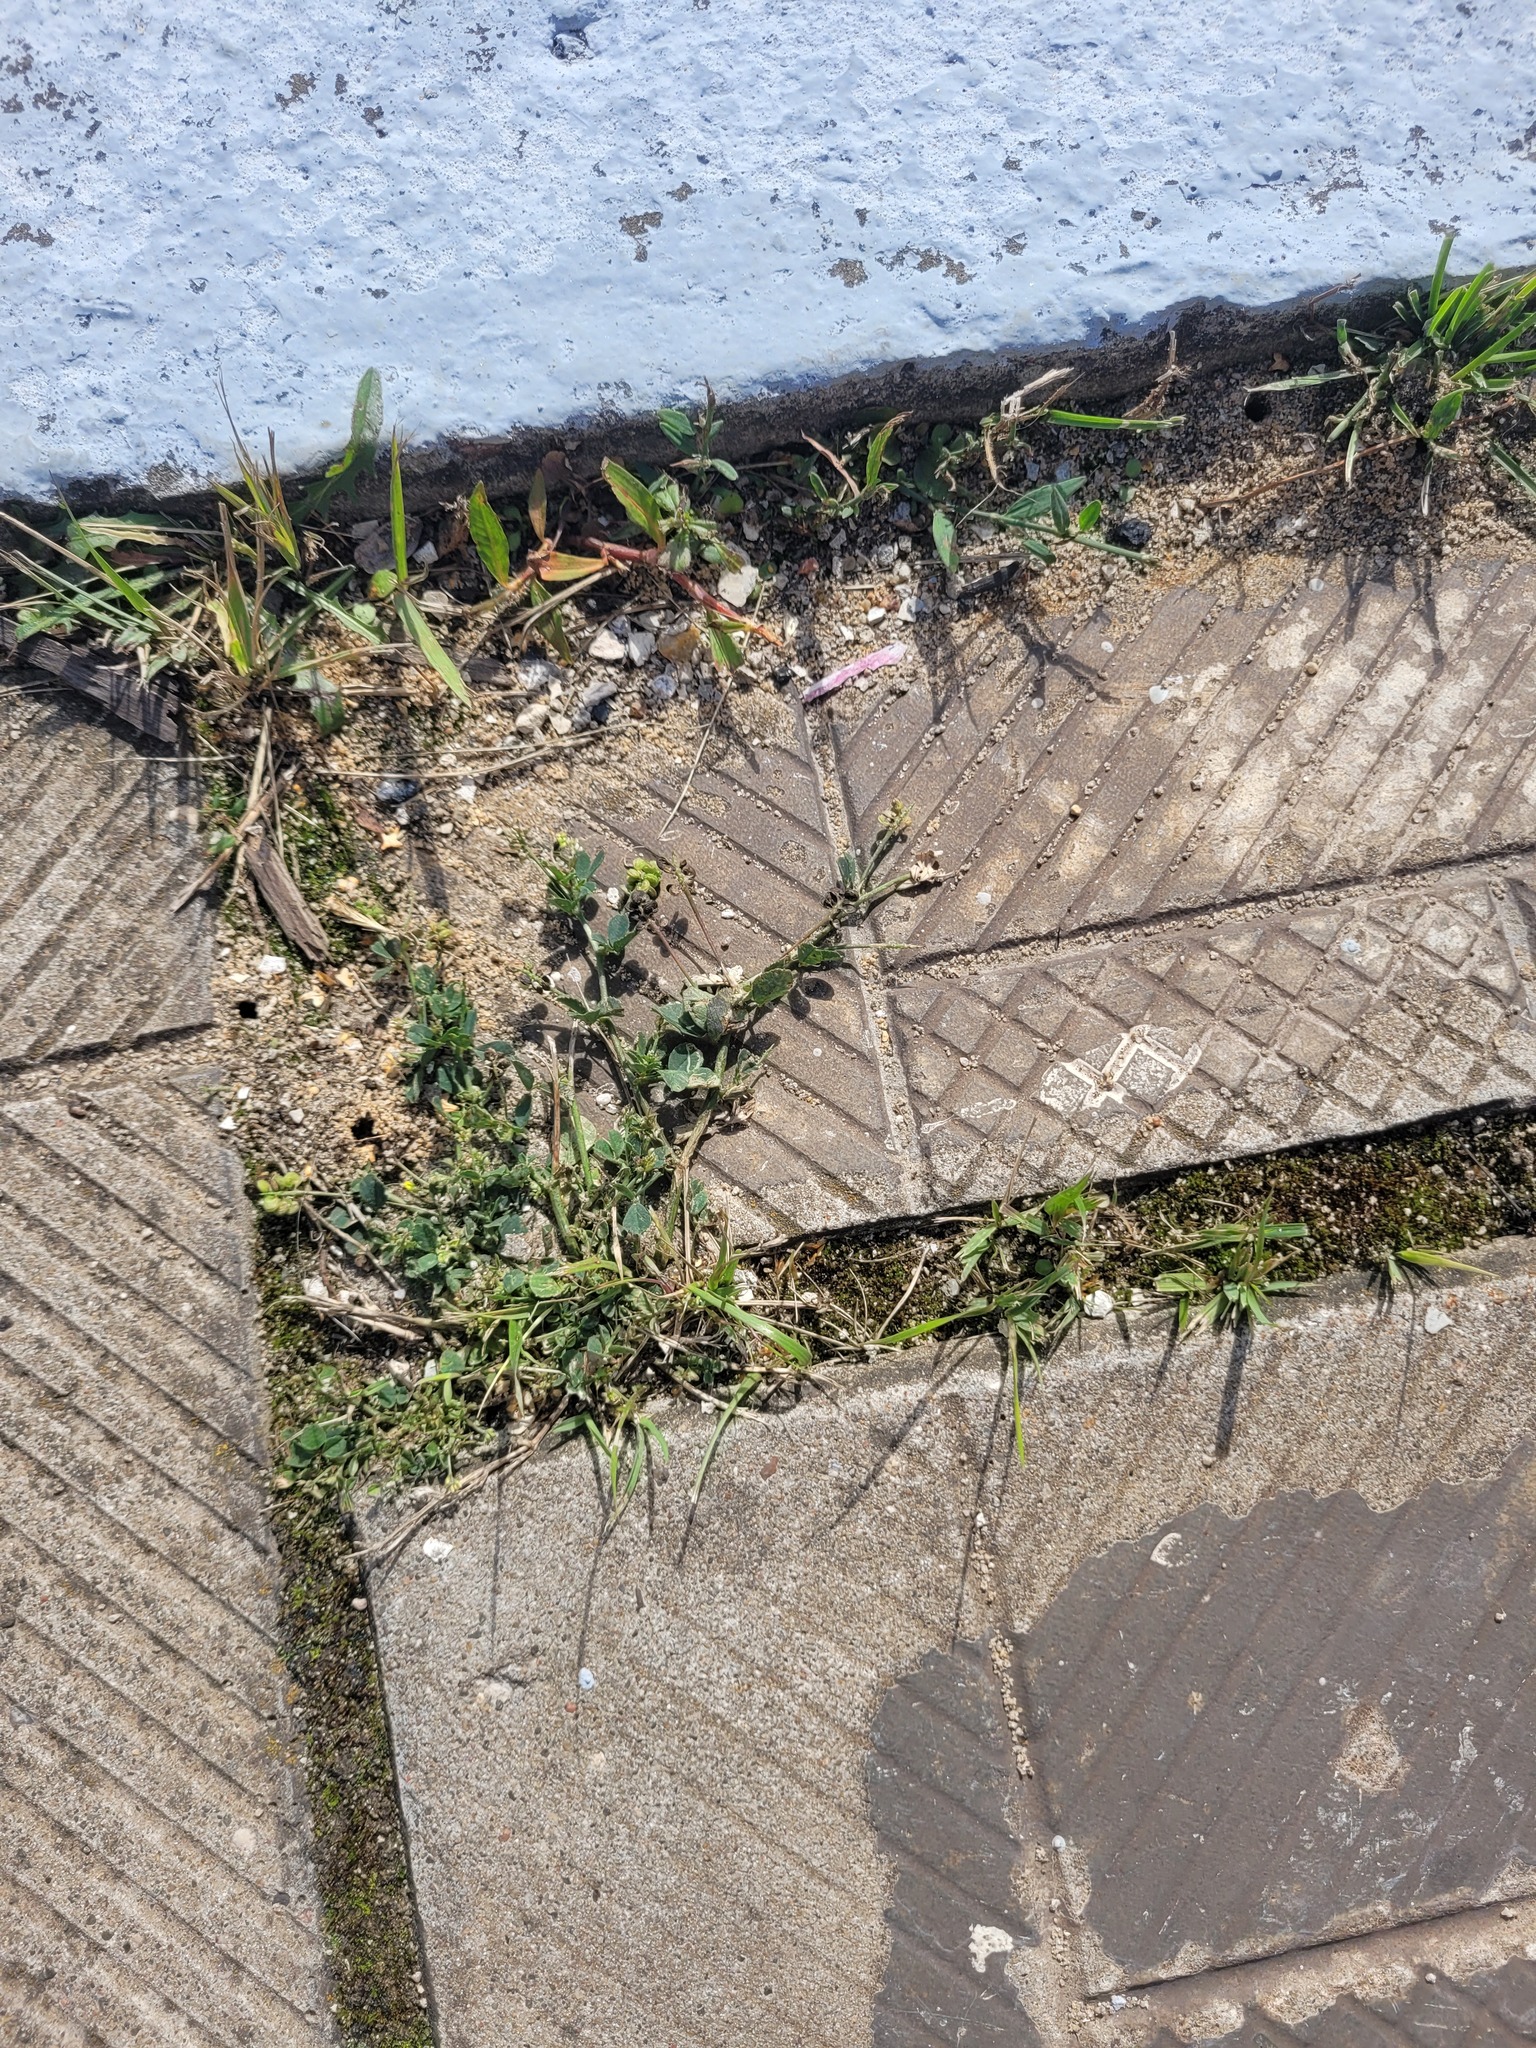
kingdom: Plantae
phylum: Tracheophyta
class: Magnoliopsida
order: Fabales
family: Fabaceae
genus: Medicago
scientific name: Medicago lupulina
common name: Black medick
